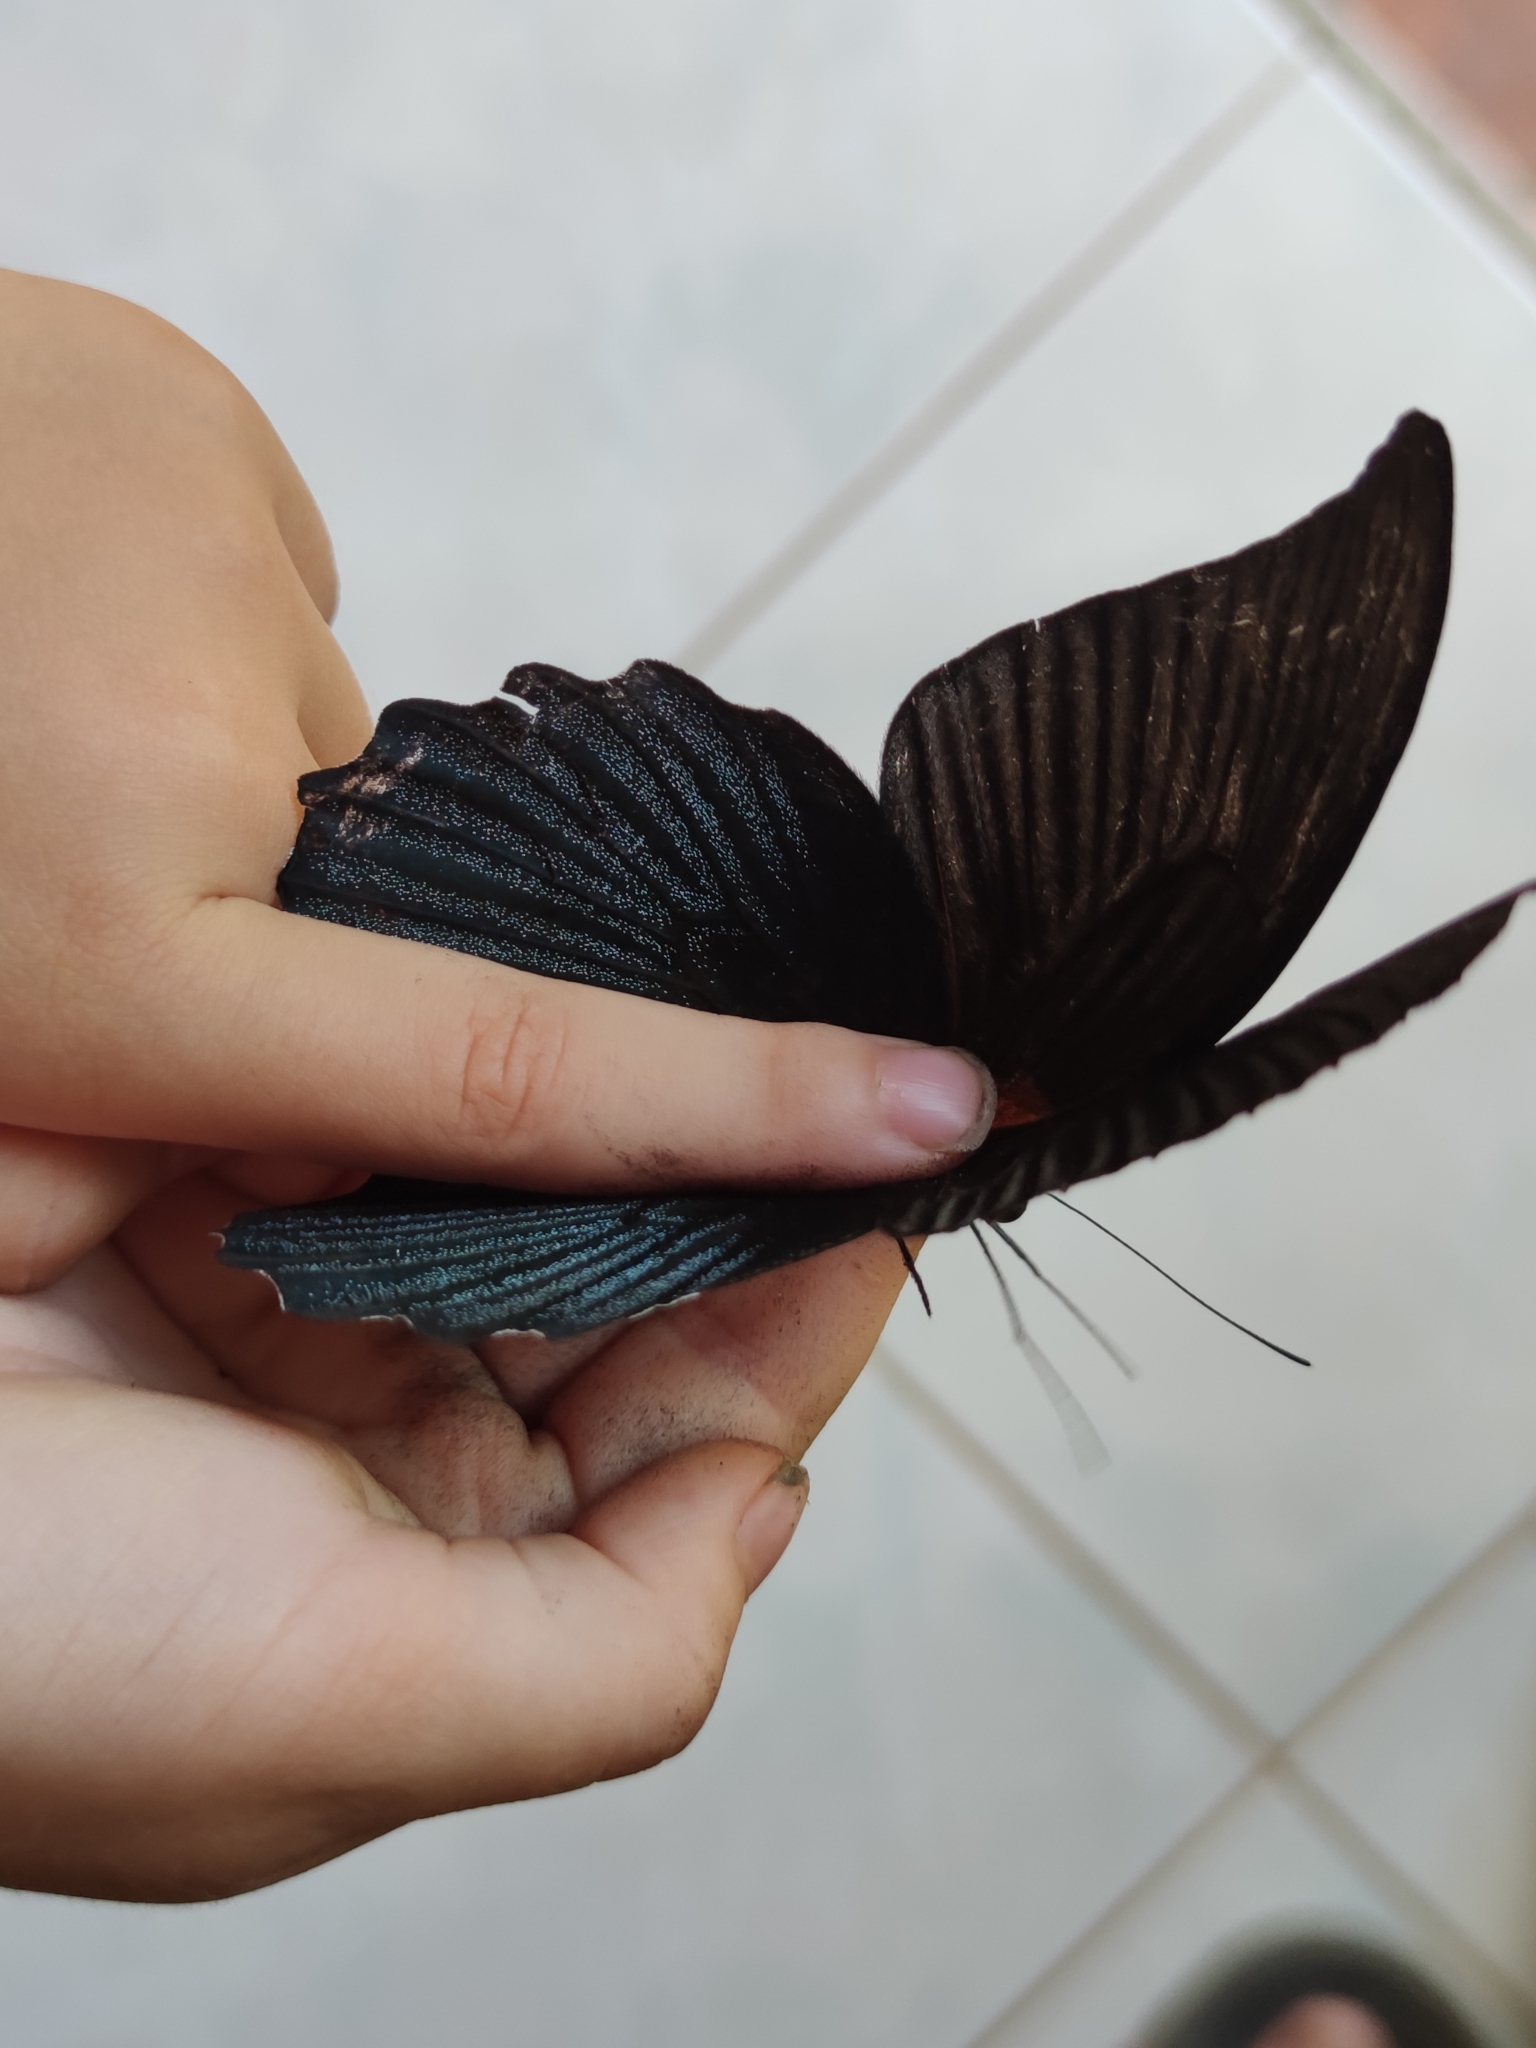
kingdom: Animalia
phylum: Arthropoda
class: Insecta
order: Lepidoptera
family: Papilionidae
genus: Papilio
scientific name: Papilio memnon
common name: Great mormon
